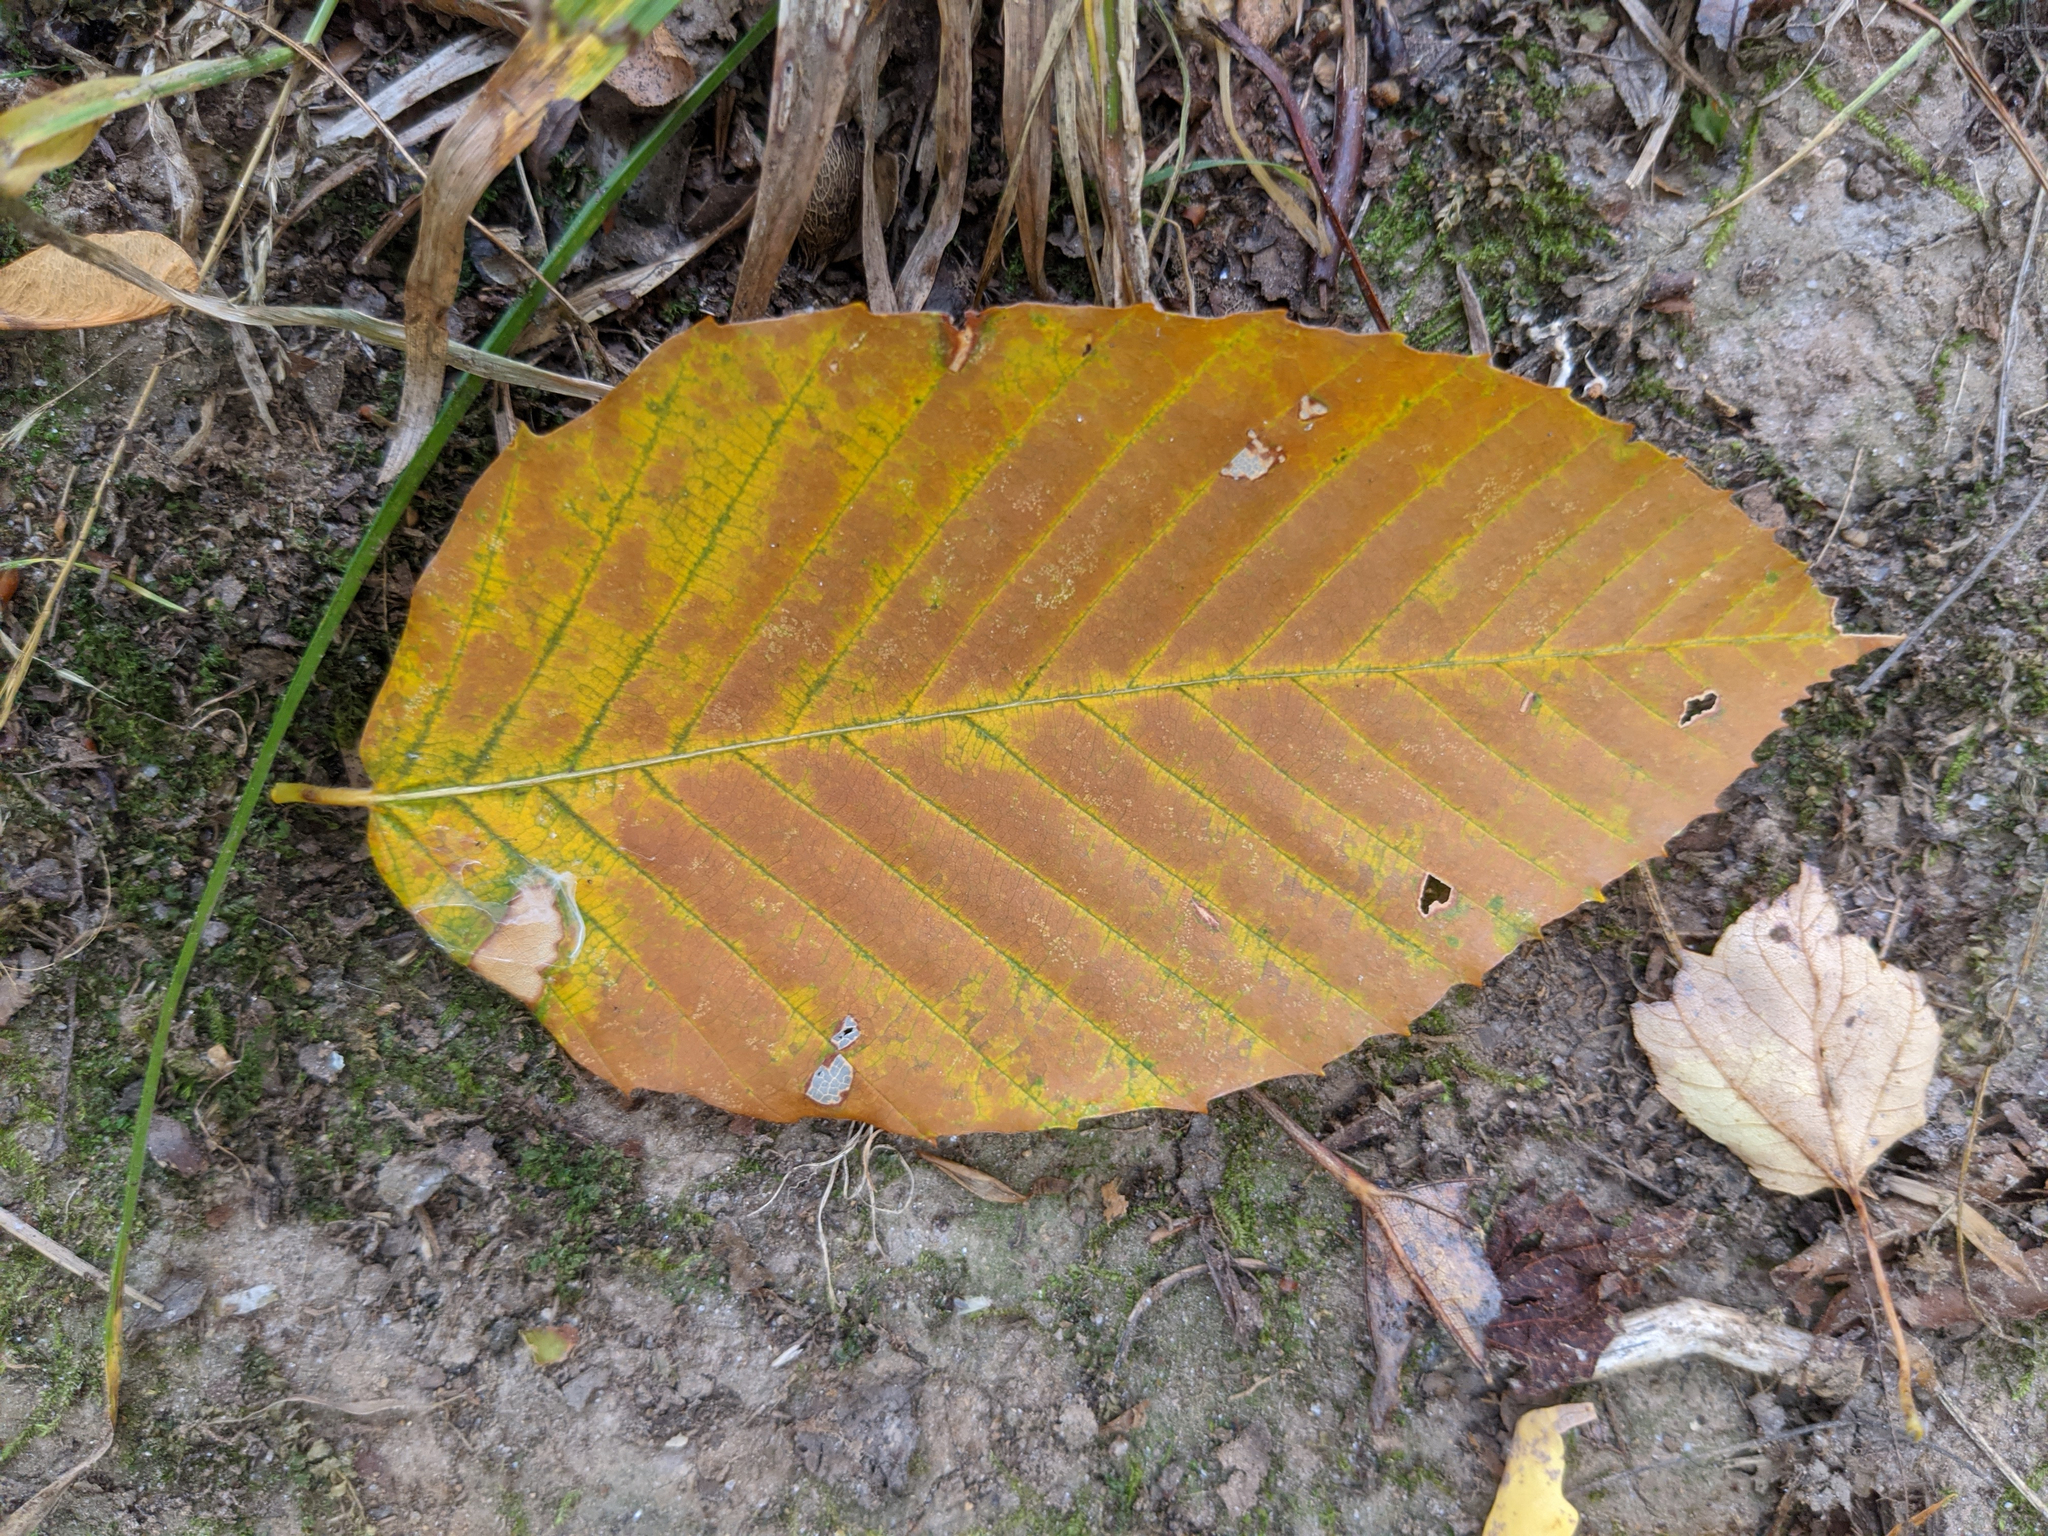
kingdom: Plantae
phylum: Tracheophyta
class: Magnoliopsida
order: Fagales
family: Fagaceae
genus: Fagus
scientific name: Fagus grandifolia
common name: American beech
